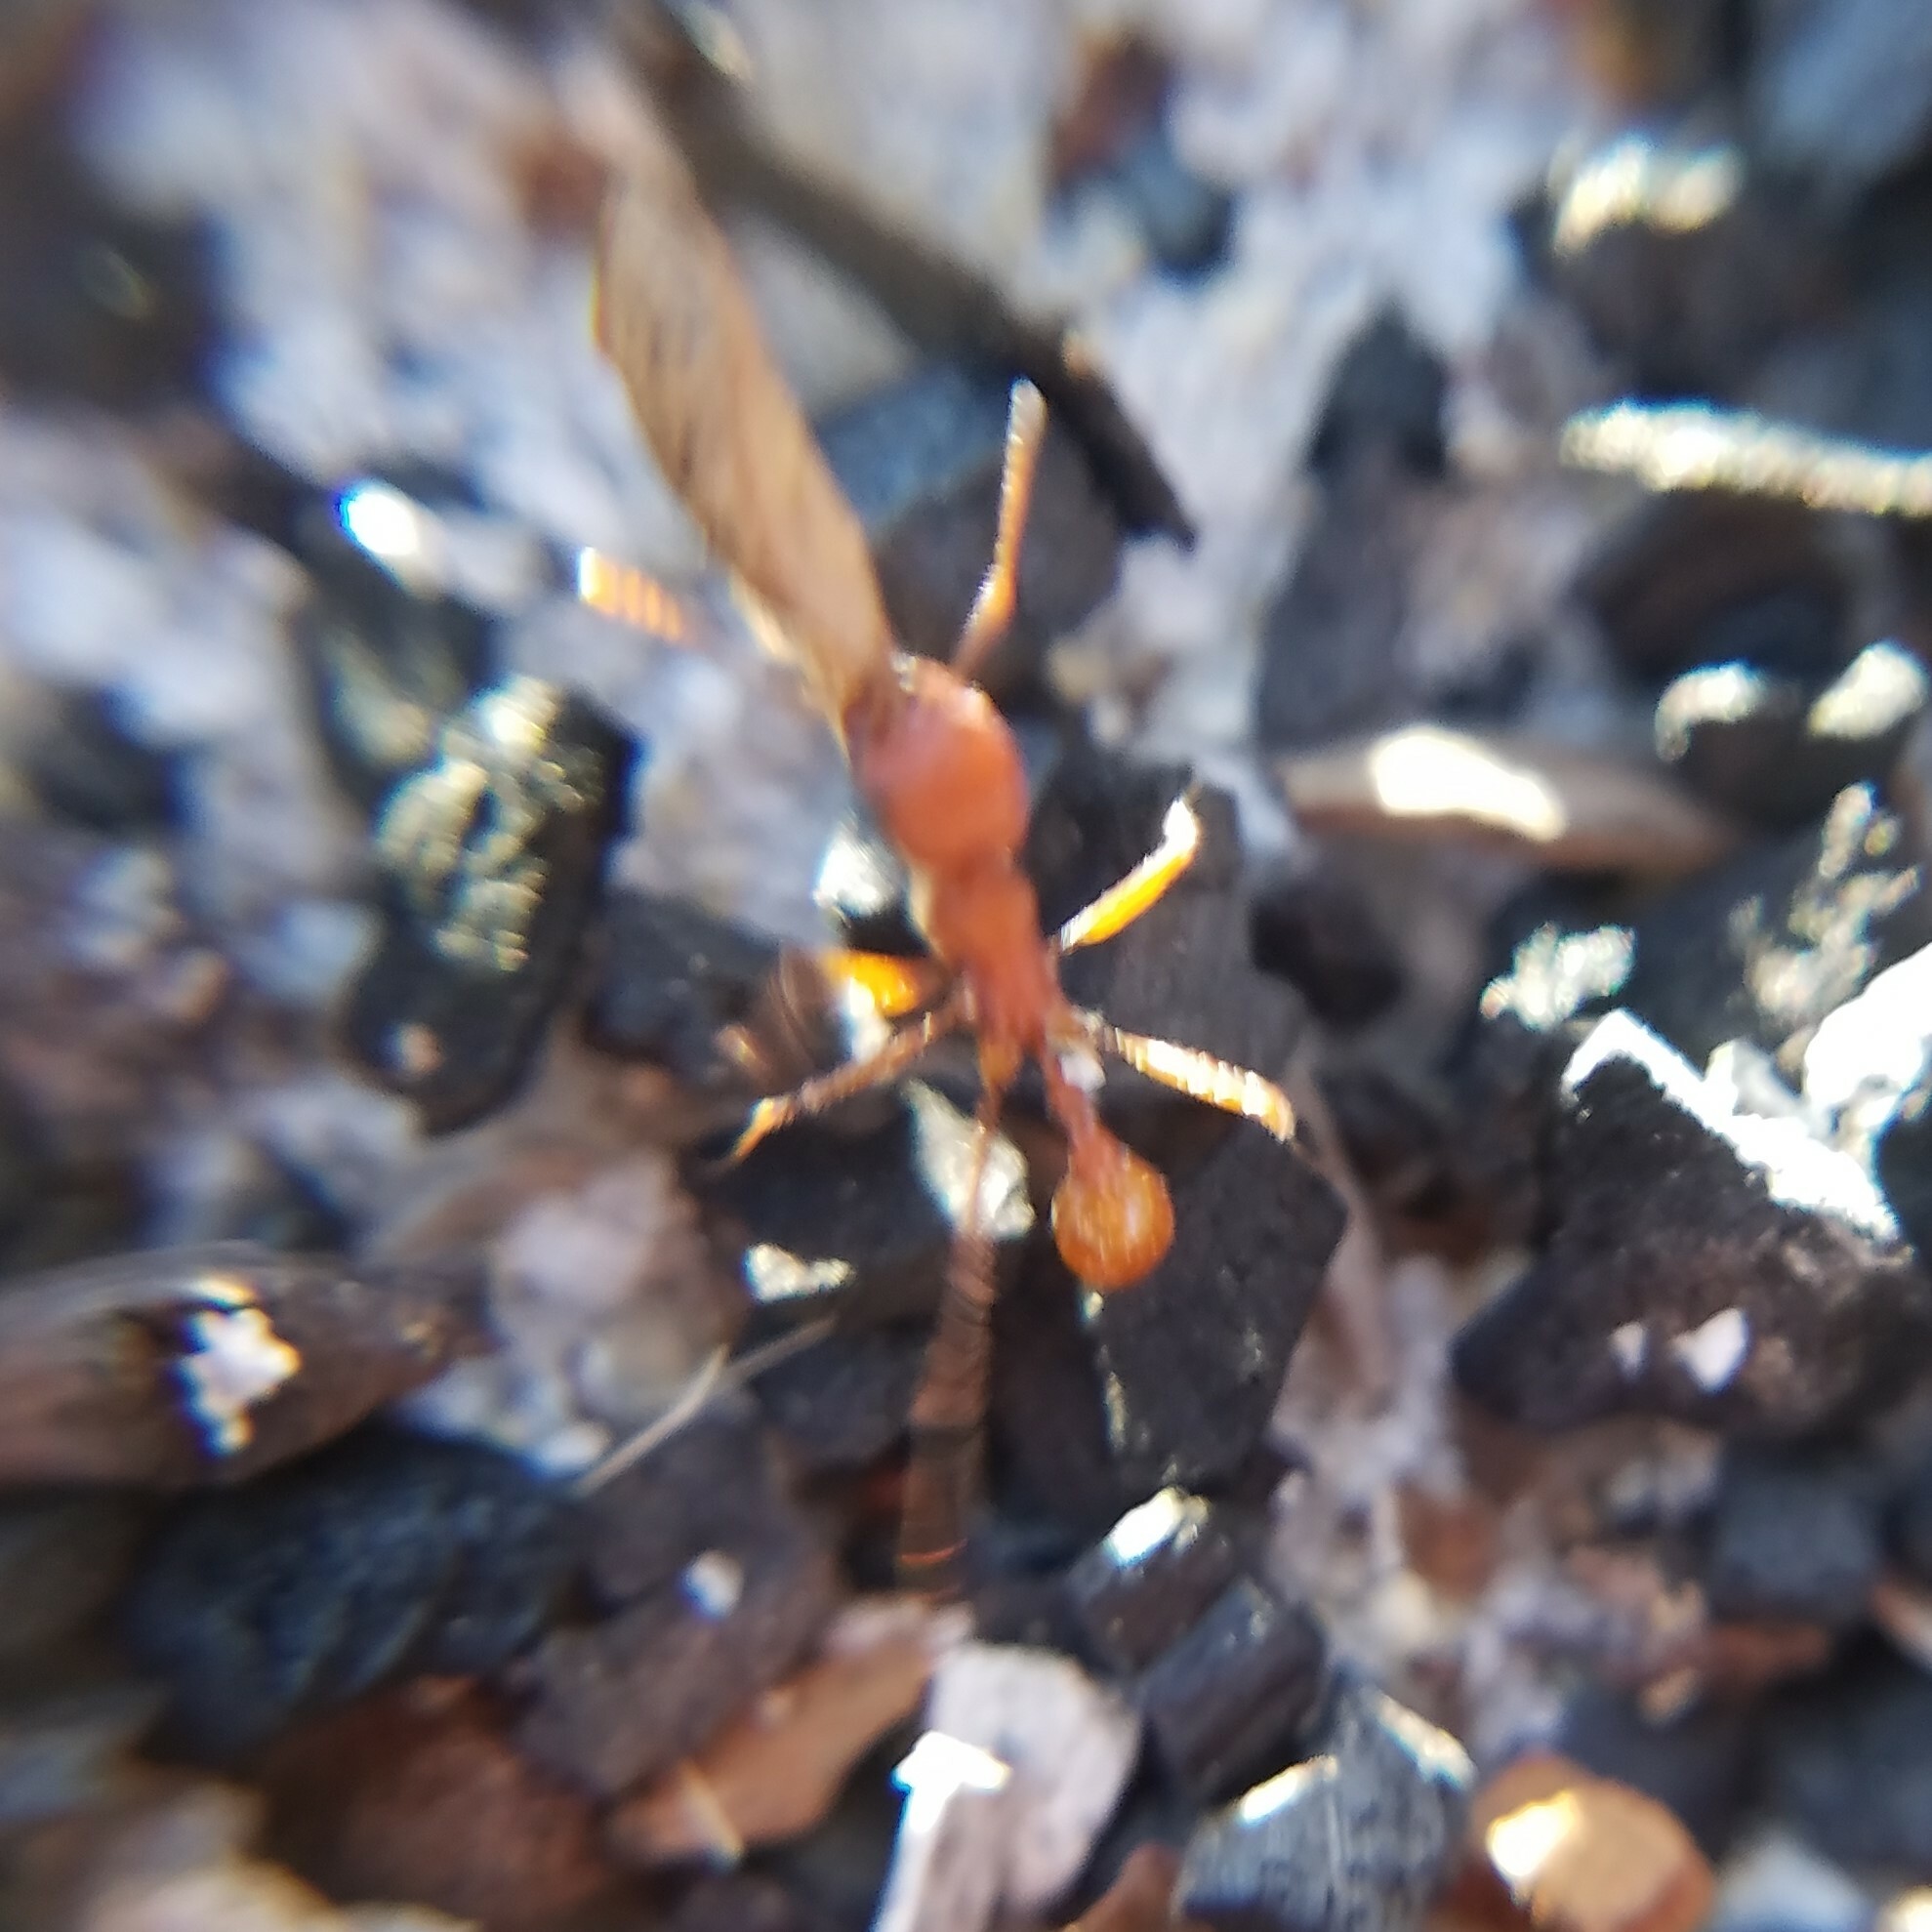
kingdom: Animalia
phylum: Arthropoda
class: Insecta
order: Hymenoptera
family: Formicidae
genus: Pogonomyrmex
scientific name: Pogonomyrmex badius
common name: Florida harvester ant
